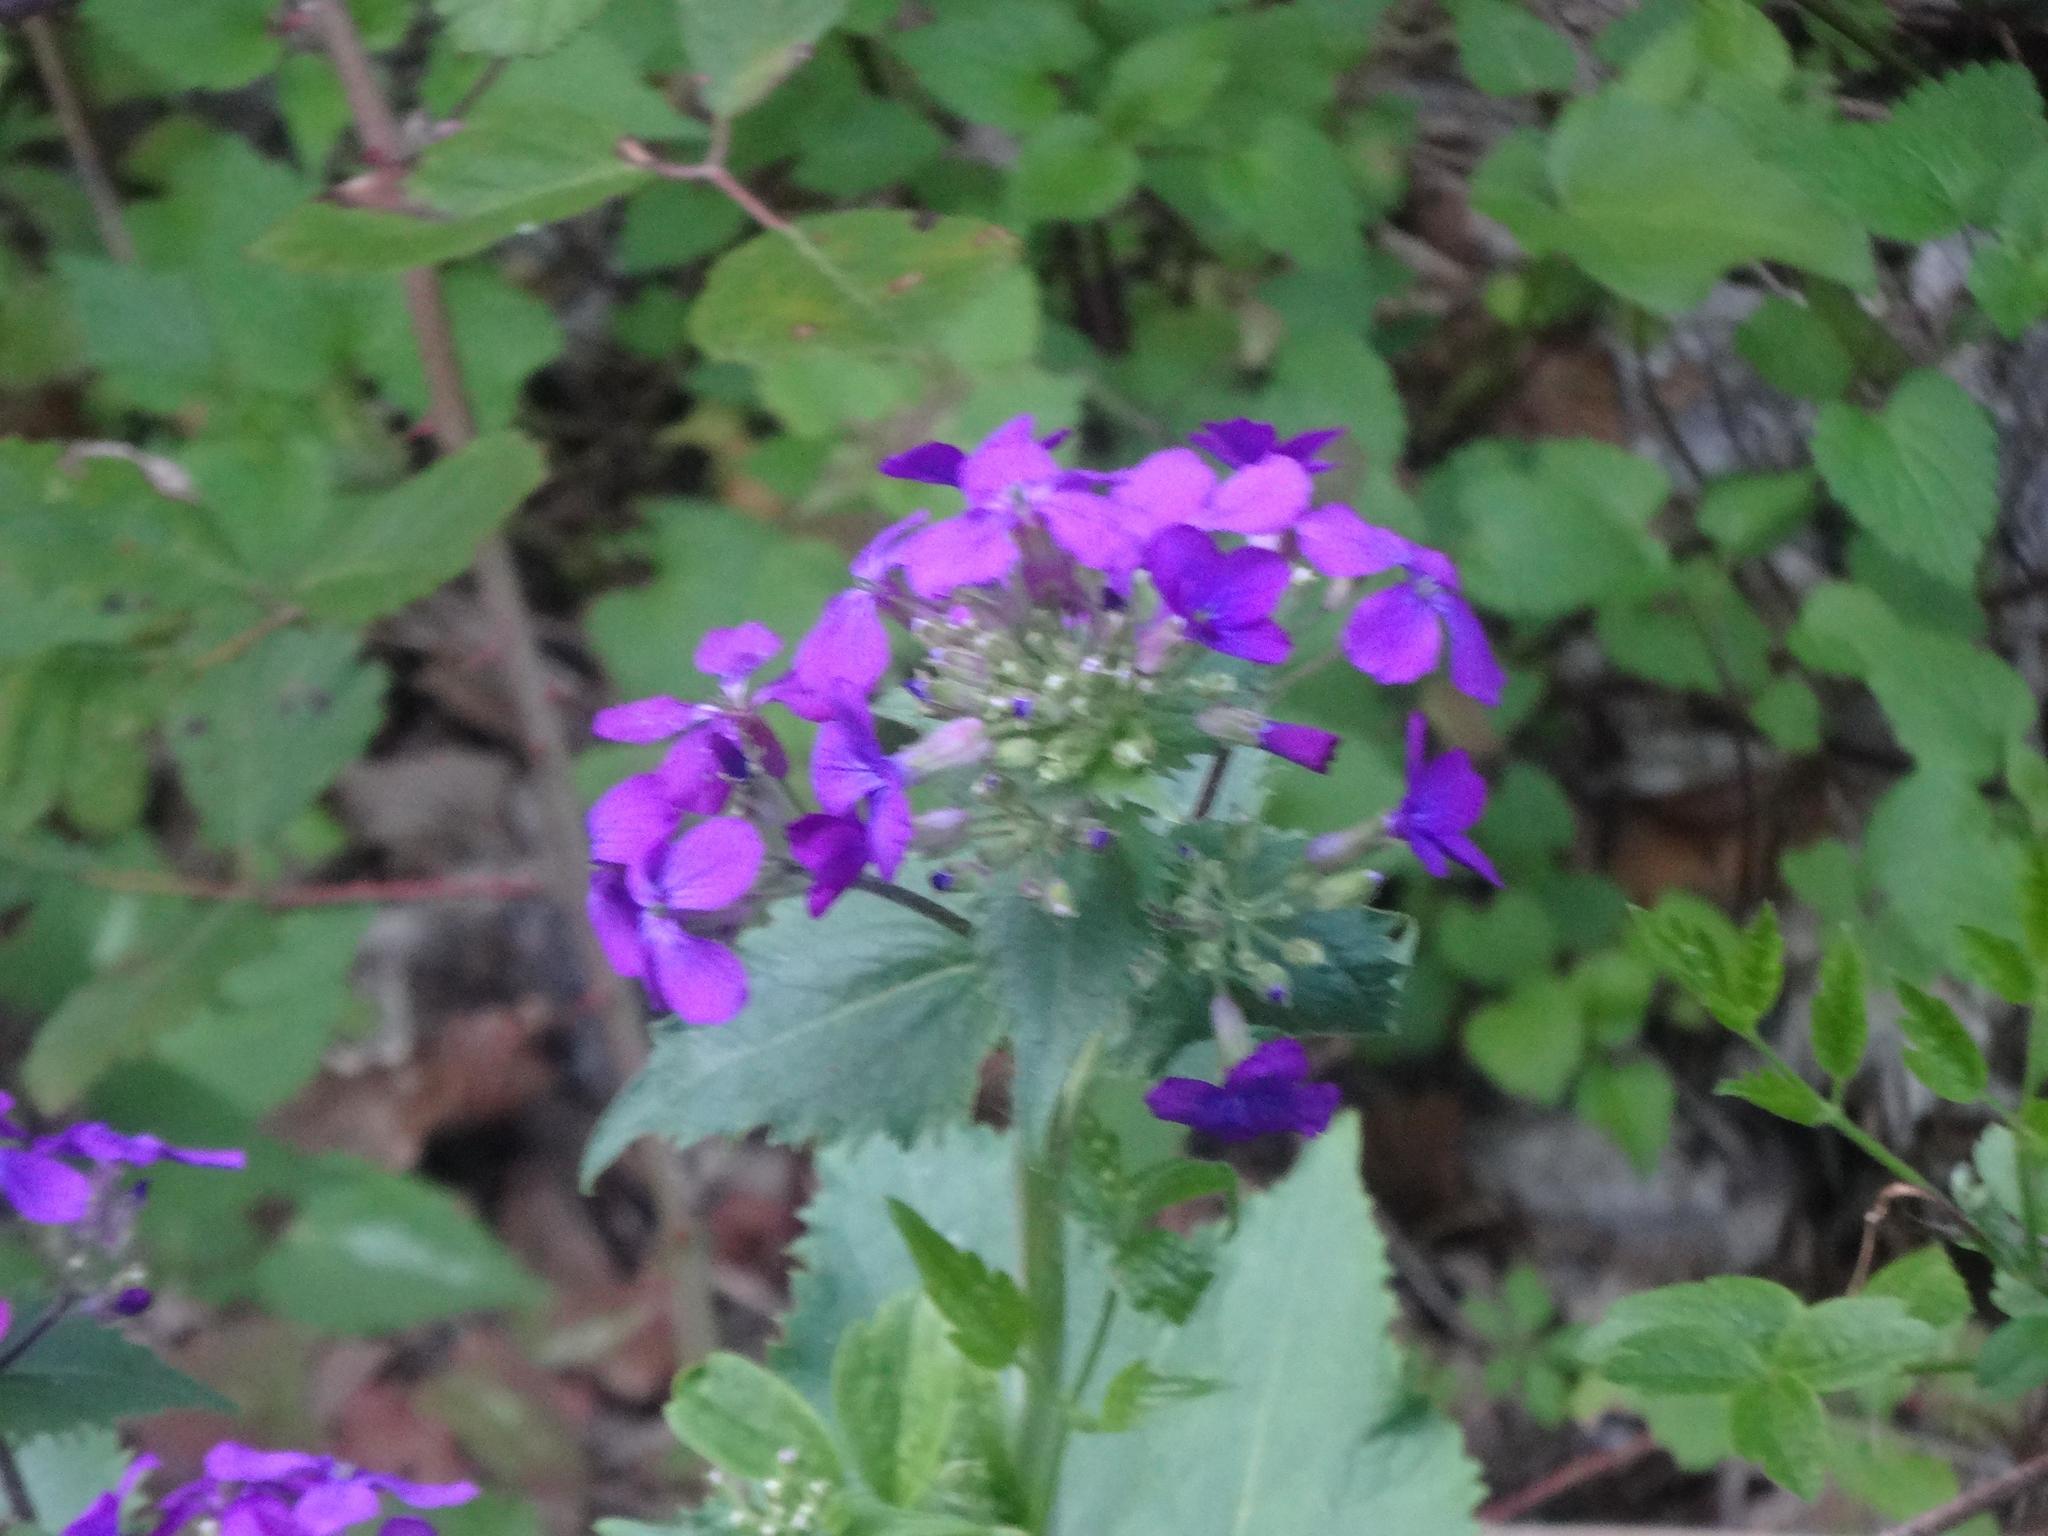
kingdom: Plantae
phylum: Tracheophyta
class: Magnoliopsida
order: Brassicales
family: Brassicaceae
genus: Lunaria
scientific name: Lunaria annua
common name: Honesty
